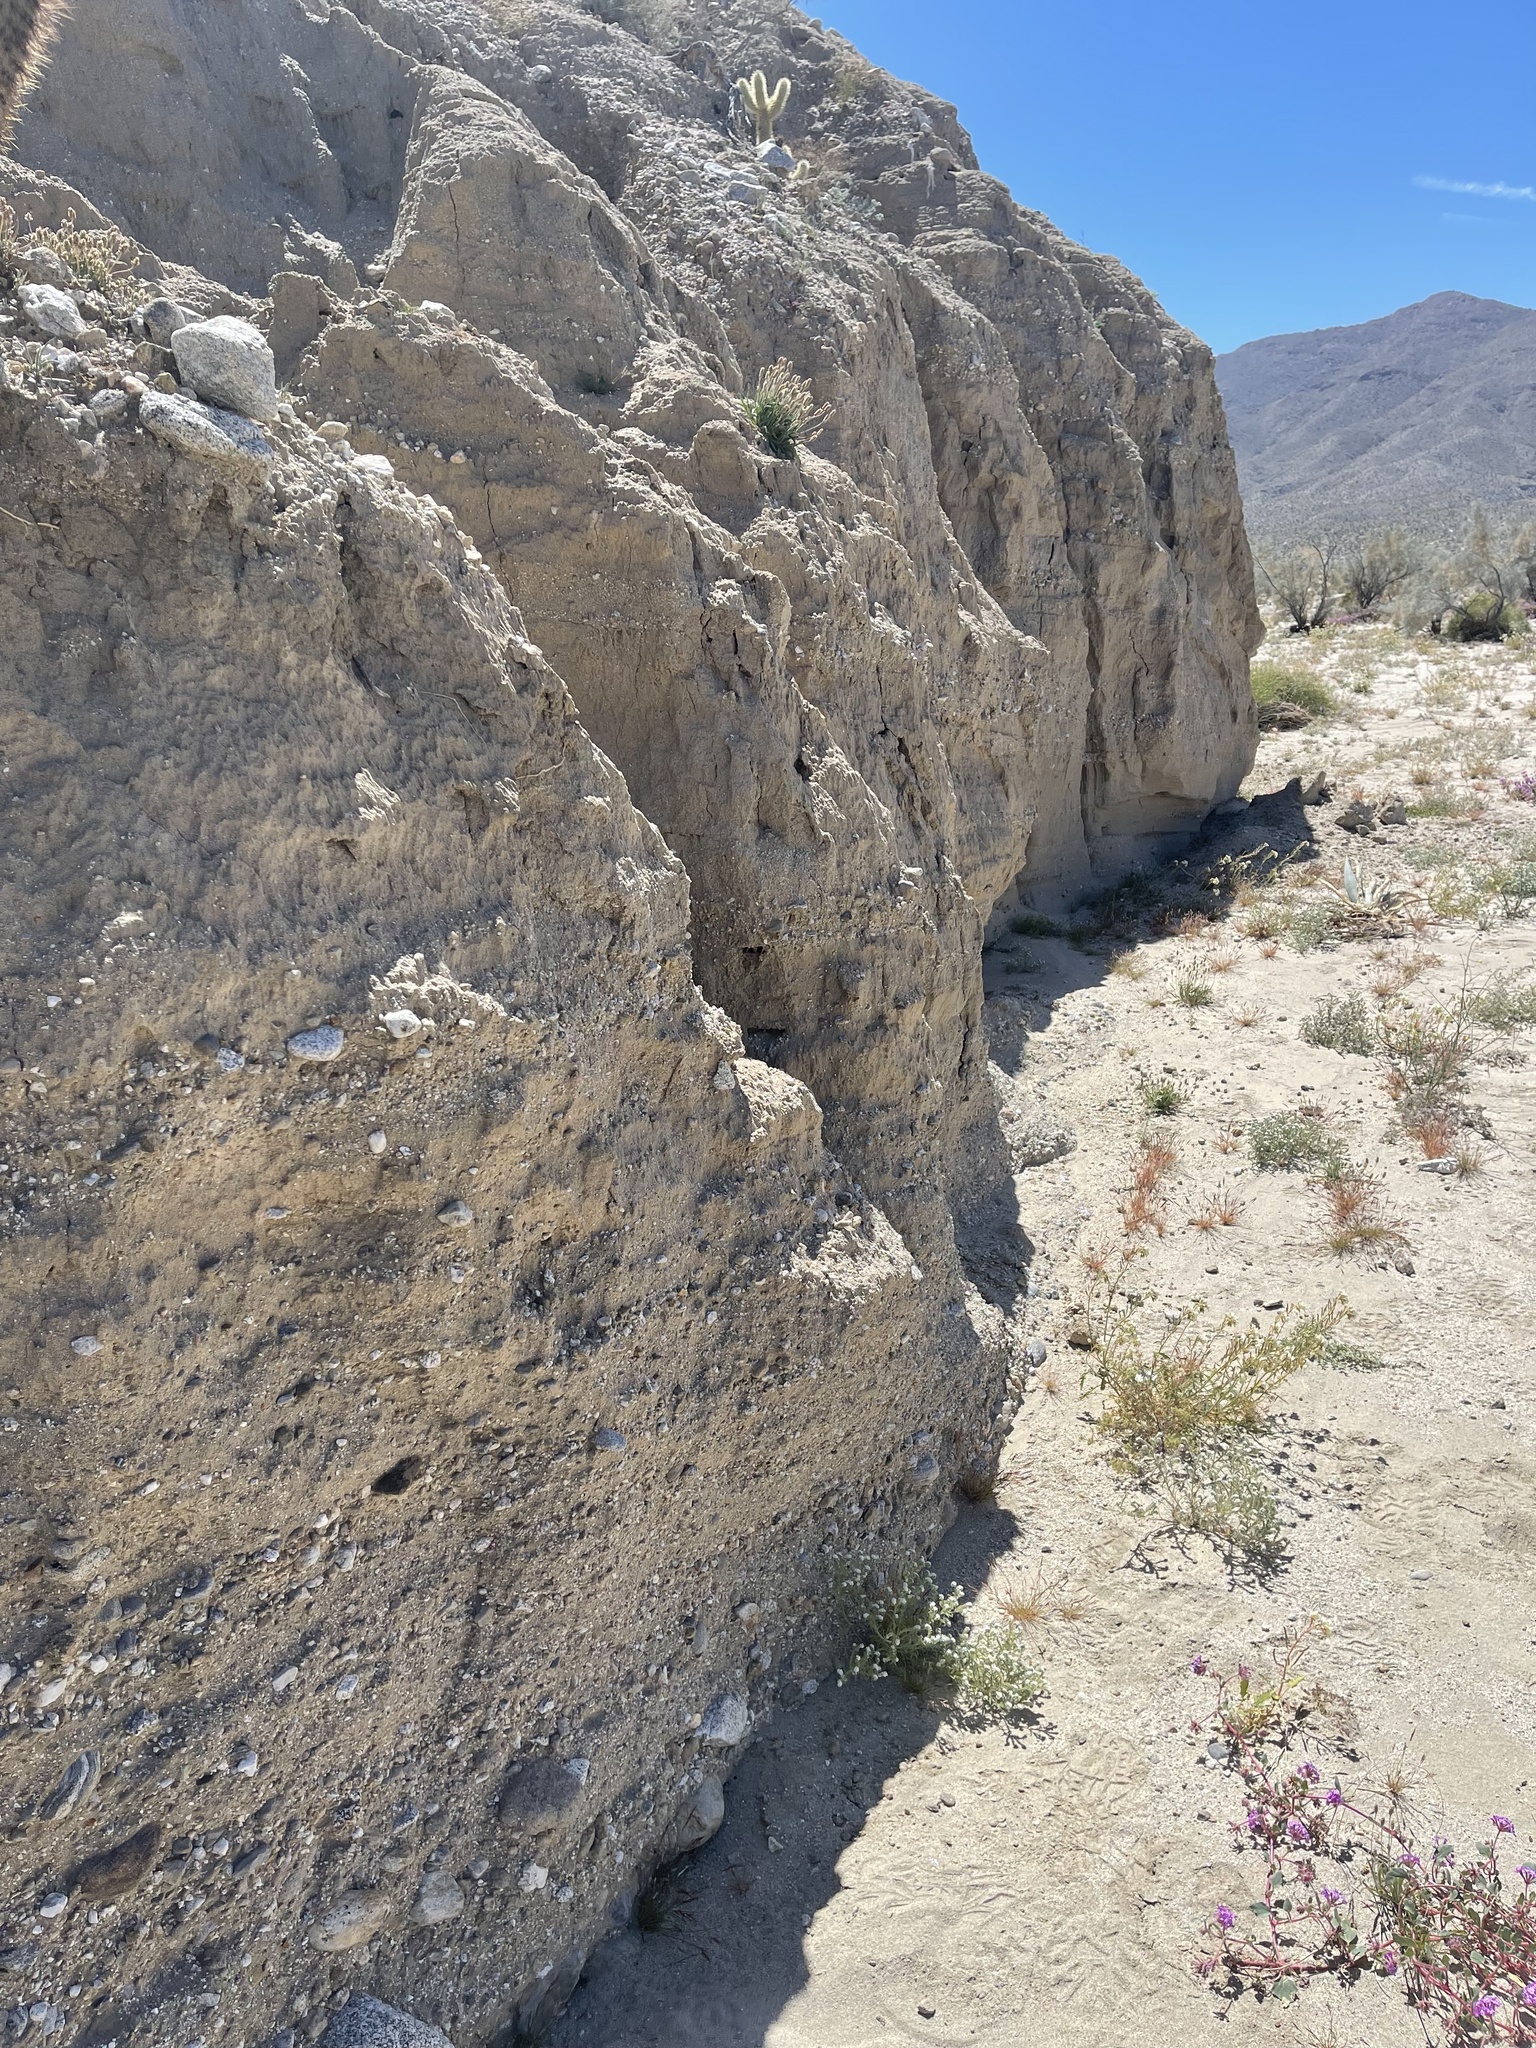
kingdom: Plantae
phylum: Tracheophyta
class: Magnoliopsida
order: Caryophyllales
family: Polygonaceae
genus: Chorizanthe
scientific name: Chorizanthe brevicornu
